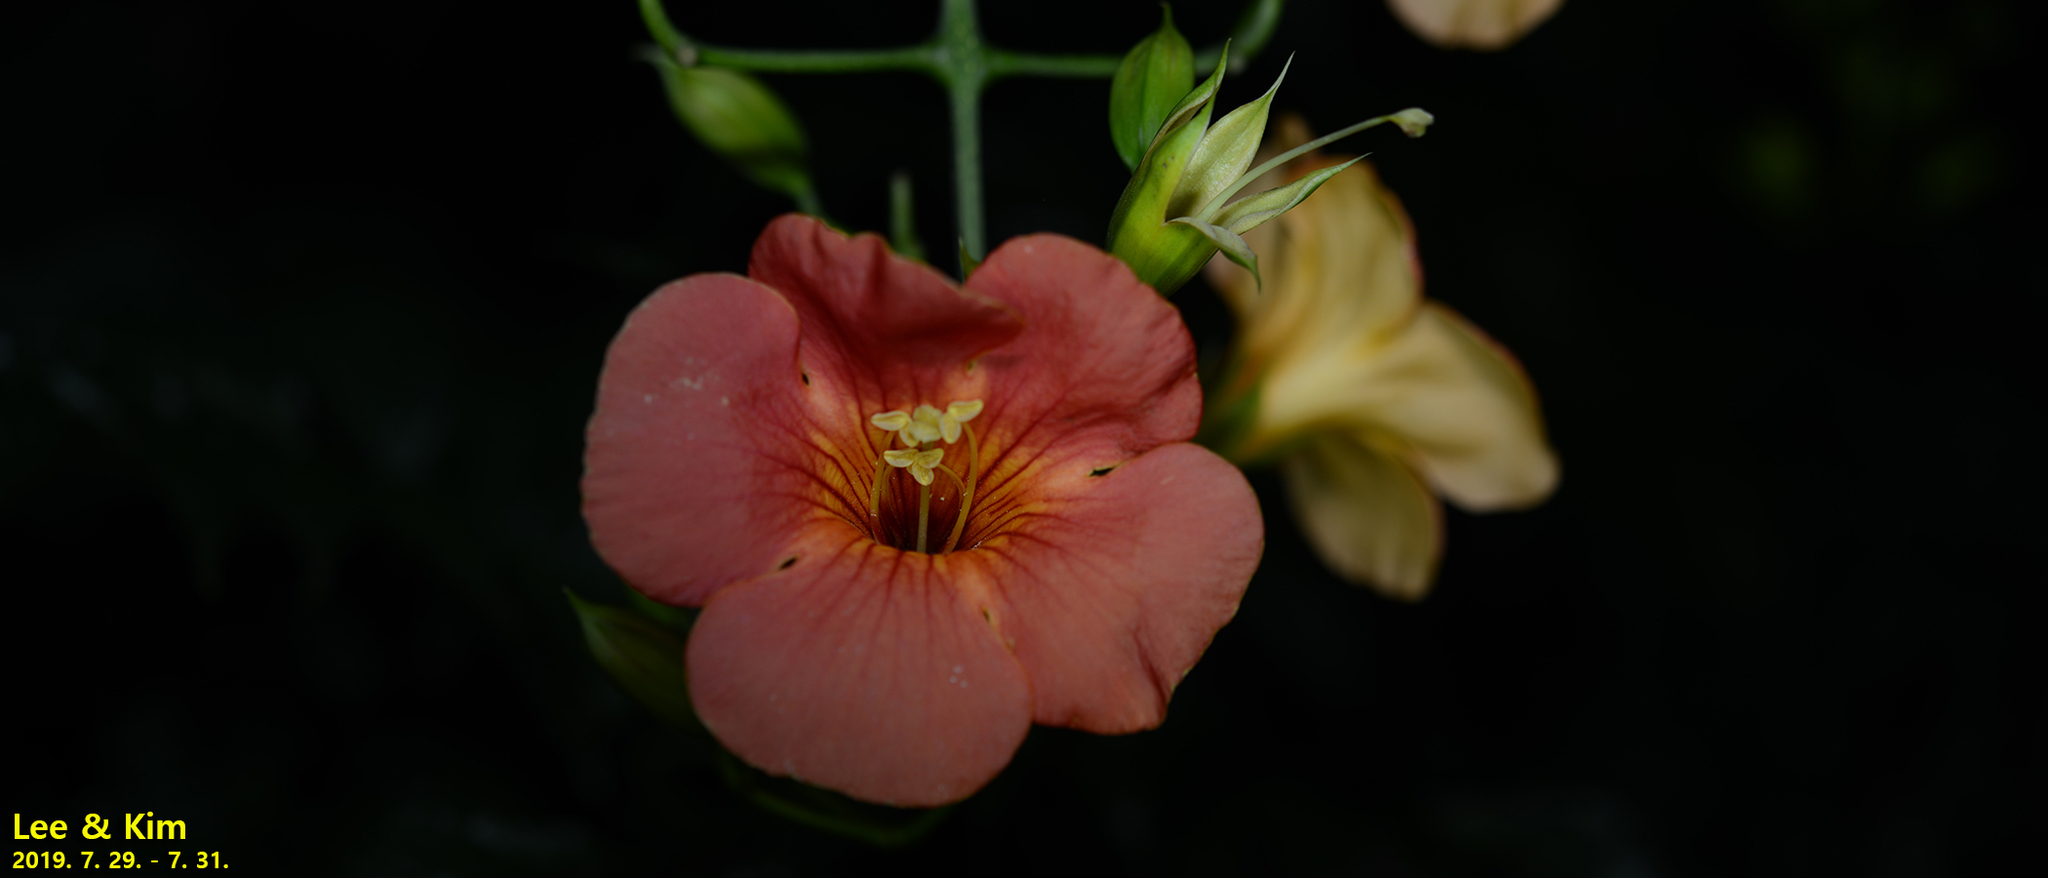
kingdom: Plantae
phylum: Tracheophyta
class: Magnoliopsida
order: Lamiales
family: Bignoniaceae
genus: Campsis
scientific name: Campsis grandiflora
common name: Chinese trumpet-creeper
